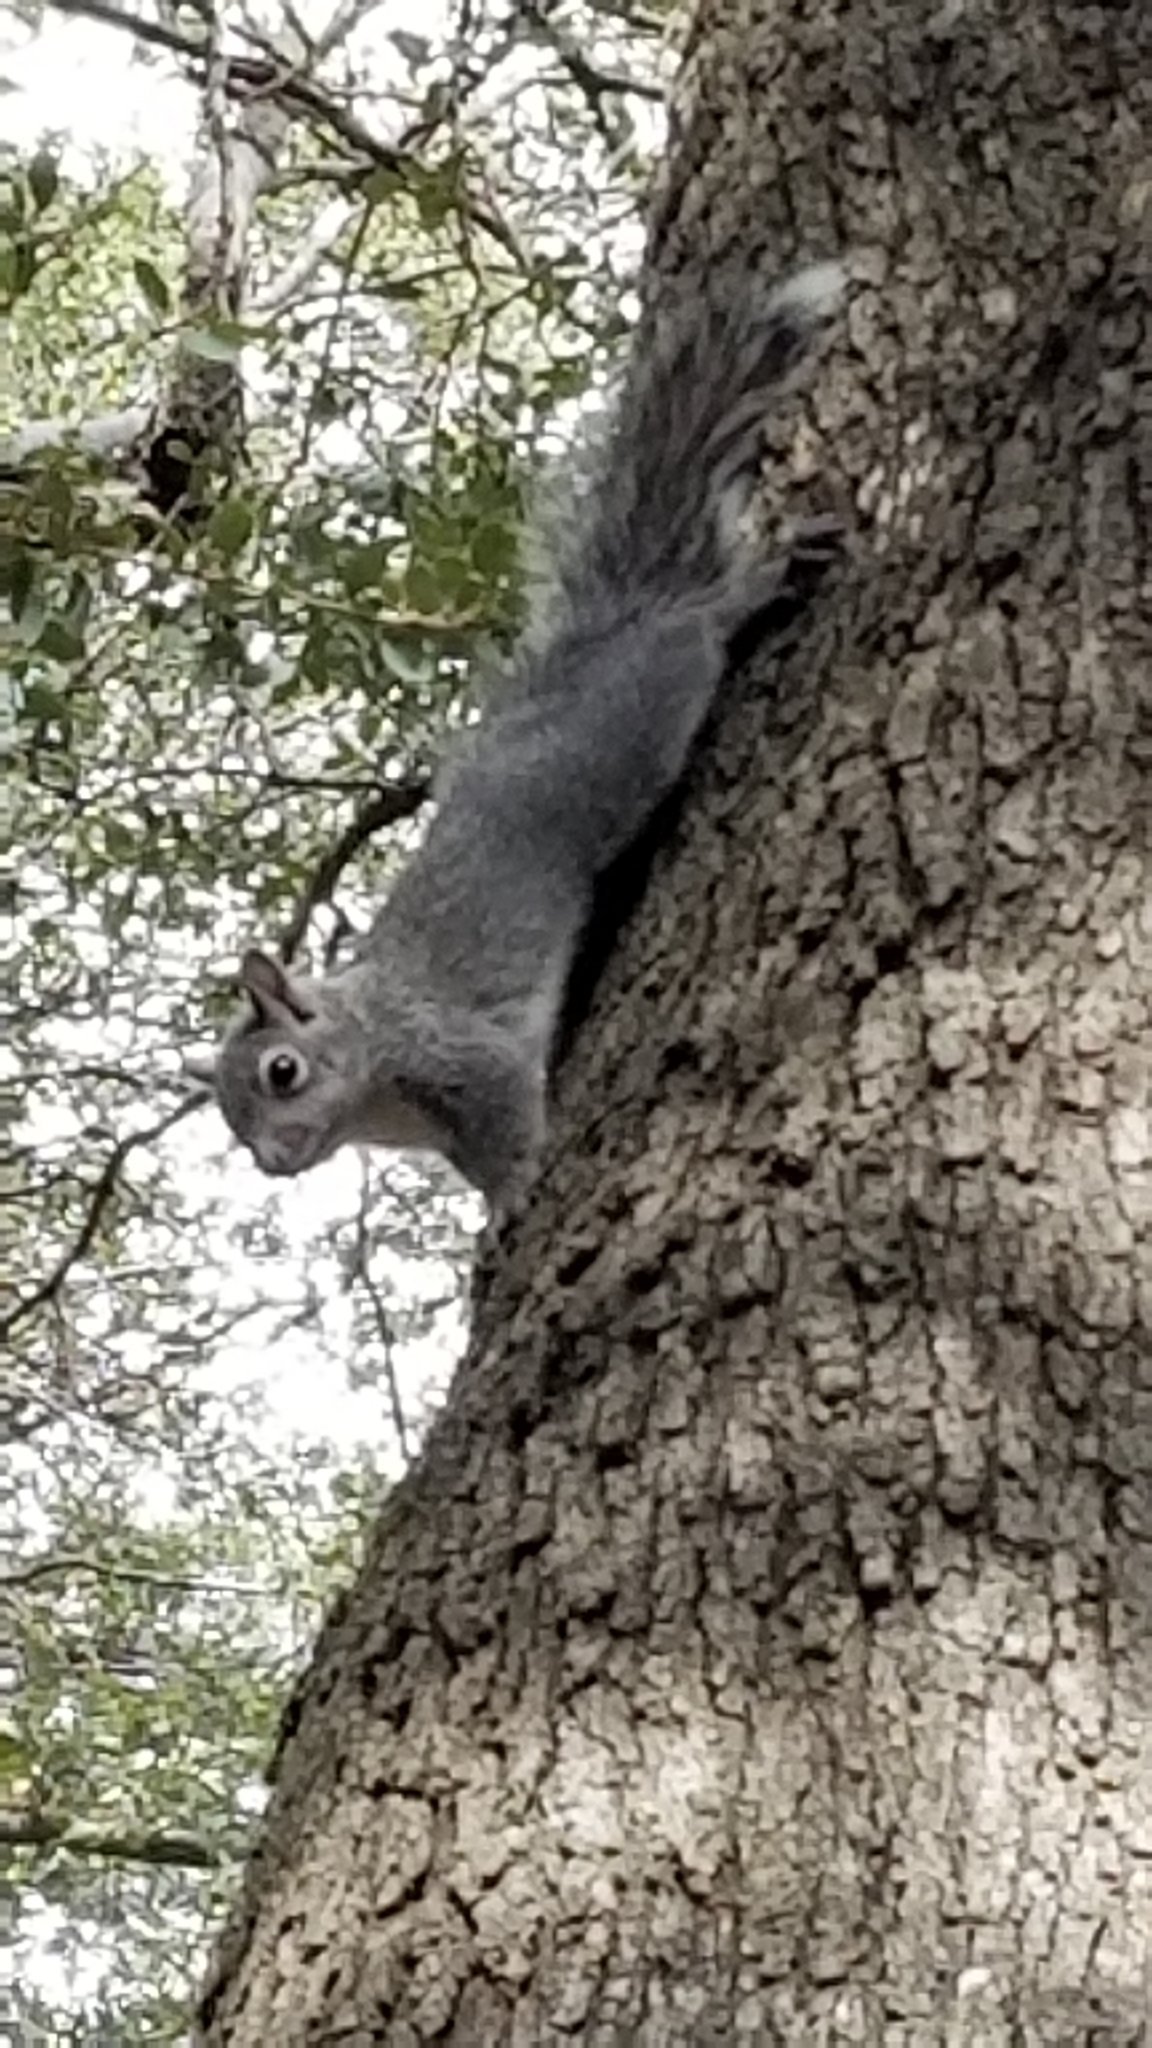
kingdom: Animalia
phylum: Chordata
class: Mammalia
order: Rodentia
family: Sciuridae
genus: Sciurus
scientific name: Sciurus griseus
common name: Western gray squirrel
